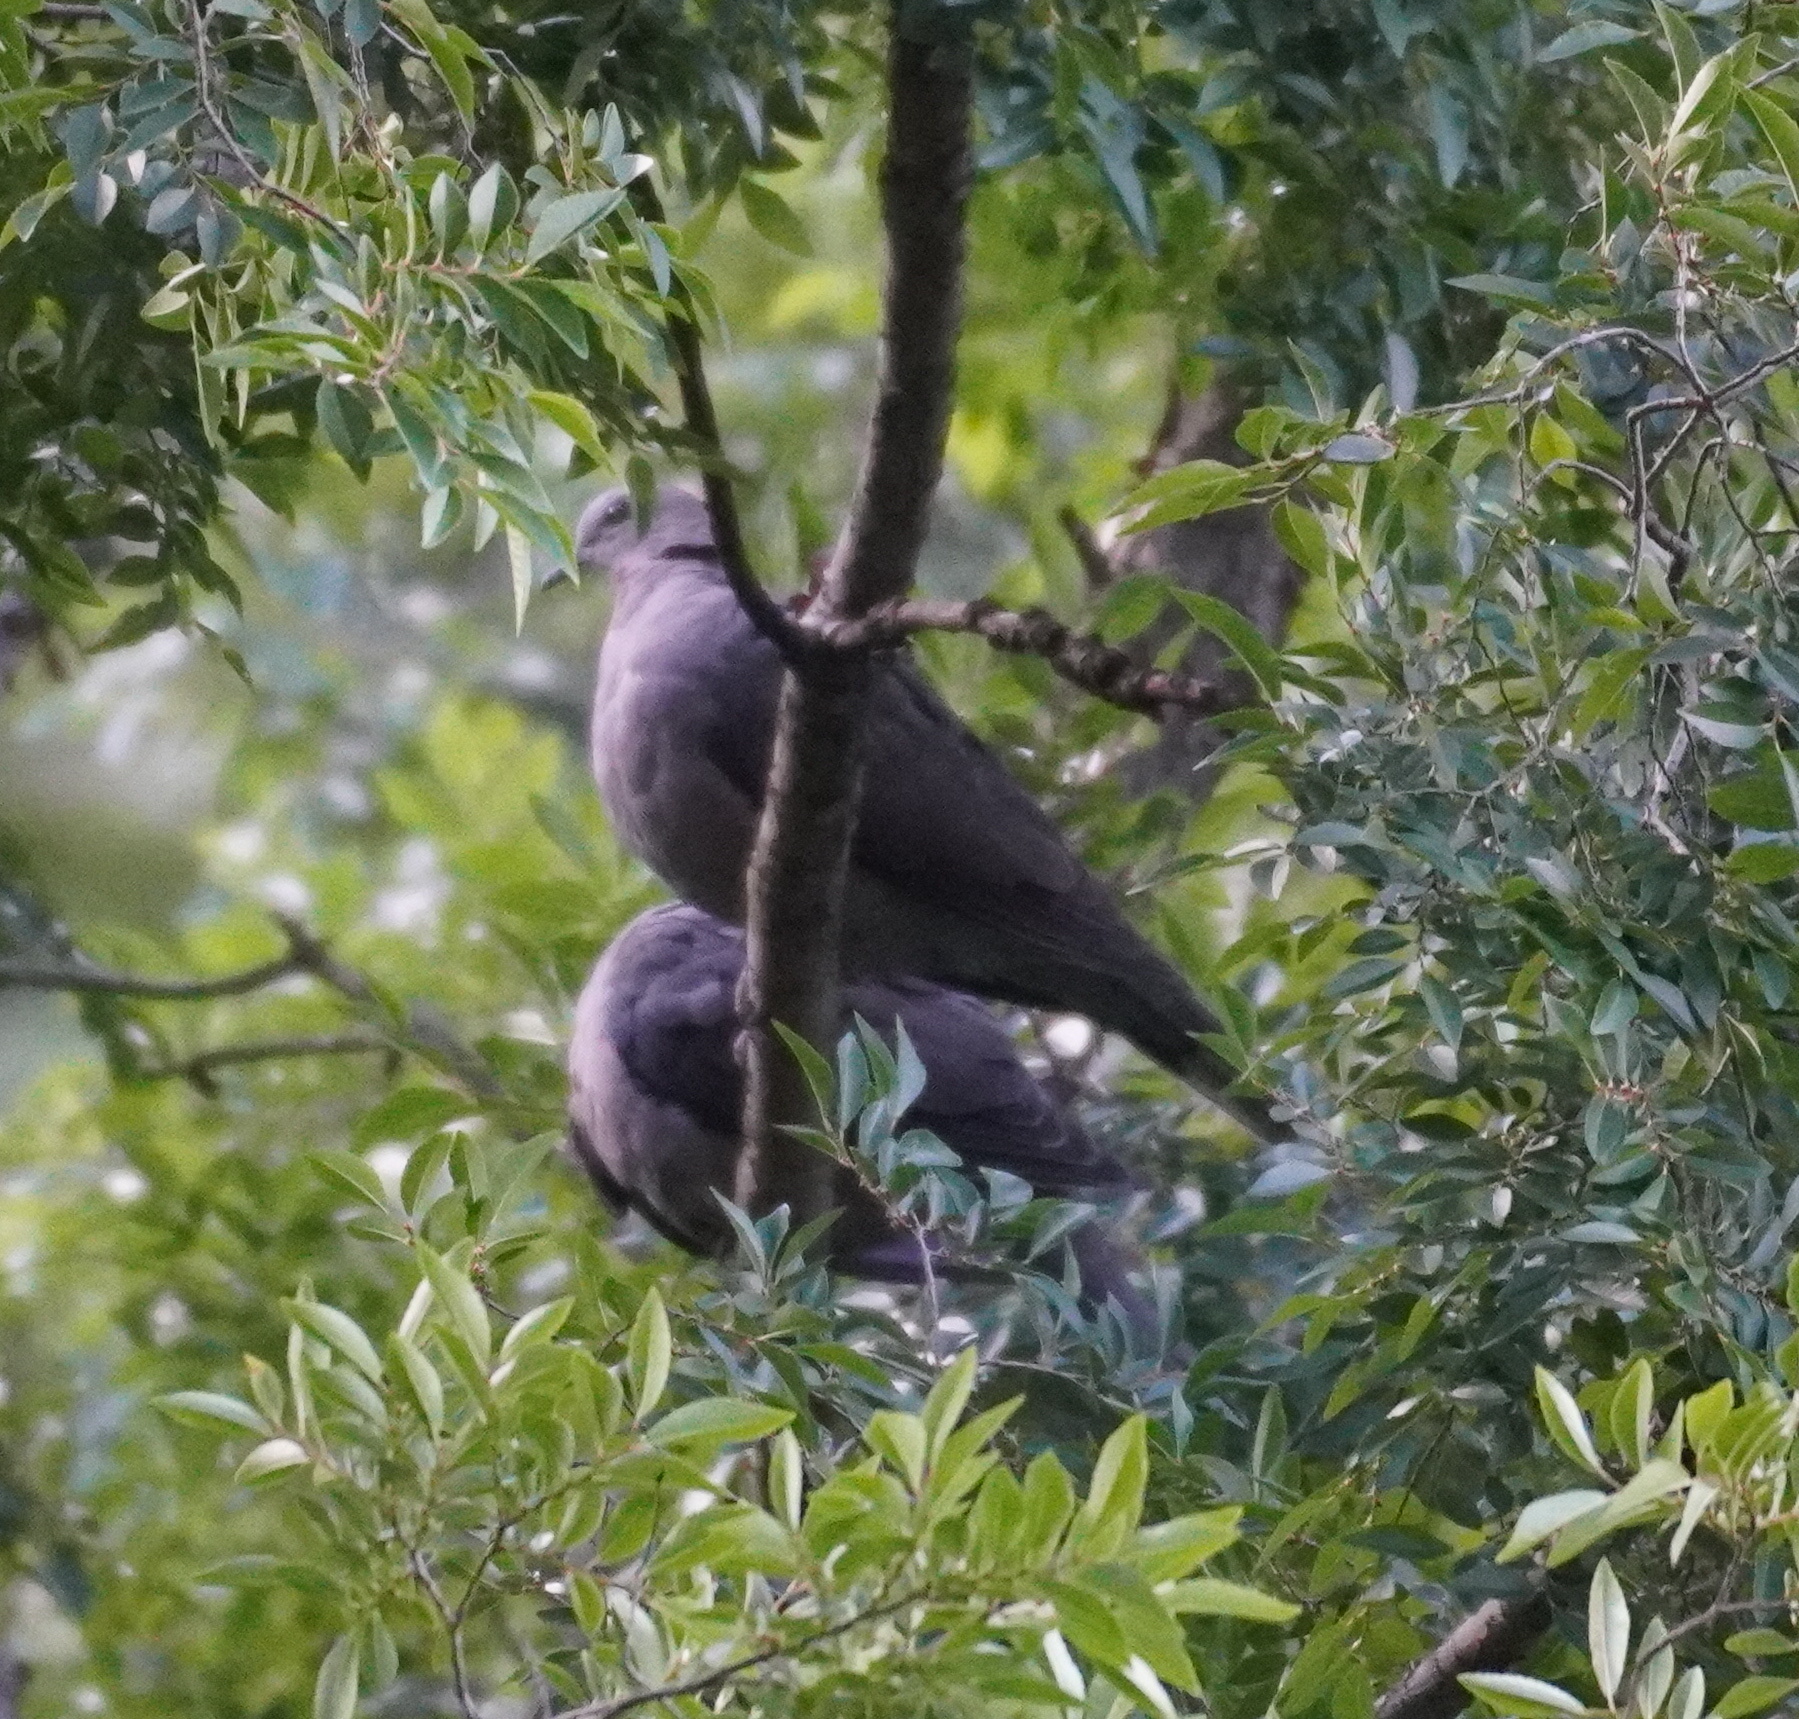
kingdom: Animalia
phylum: Chordata
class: Aves
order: Columbiformes
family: Columbidae
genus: Streptopelia
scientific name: Streptopelia semitorquata
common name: Red-eyed dove
